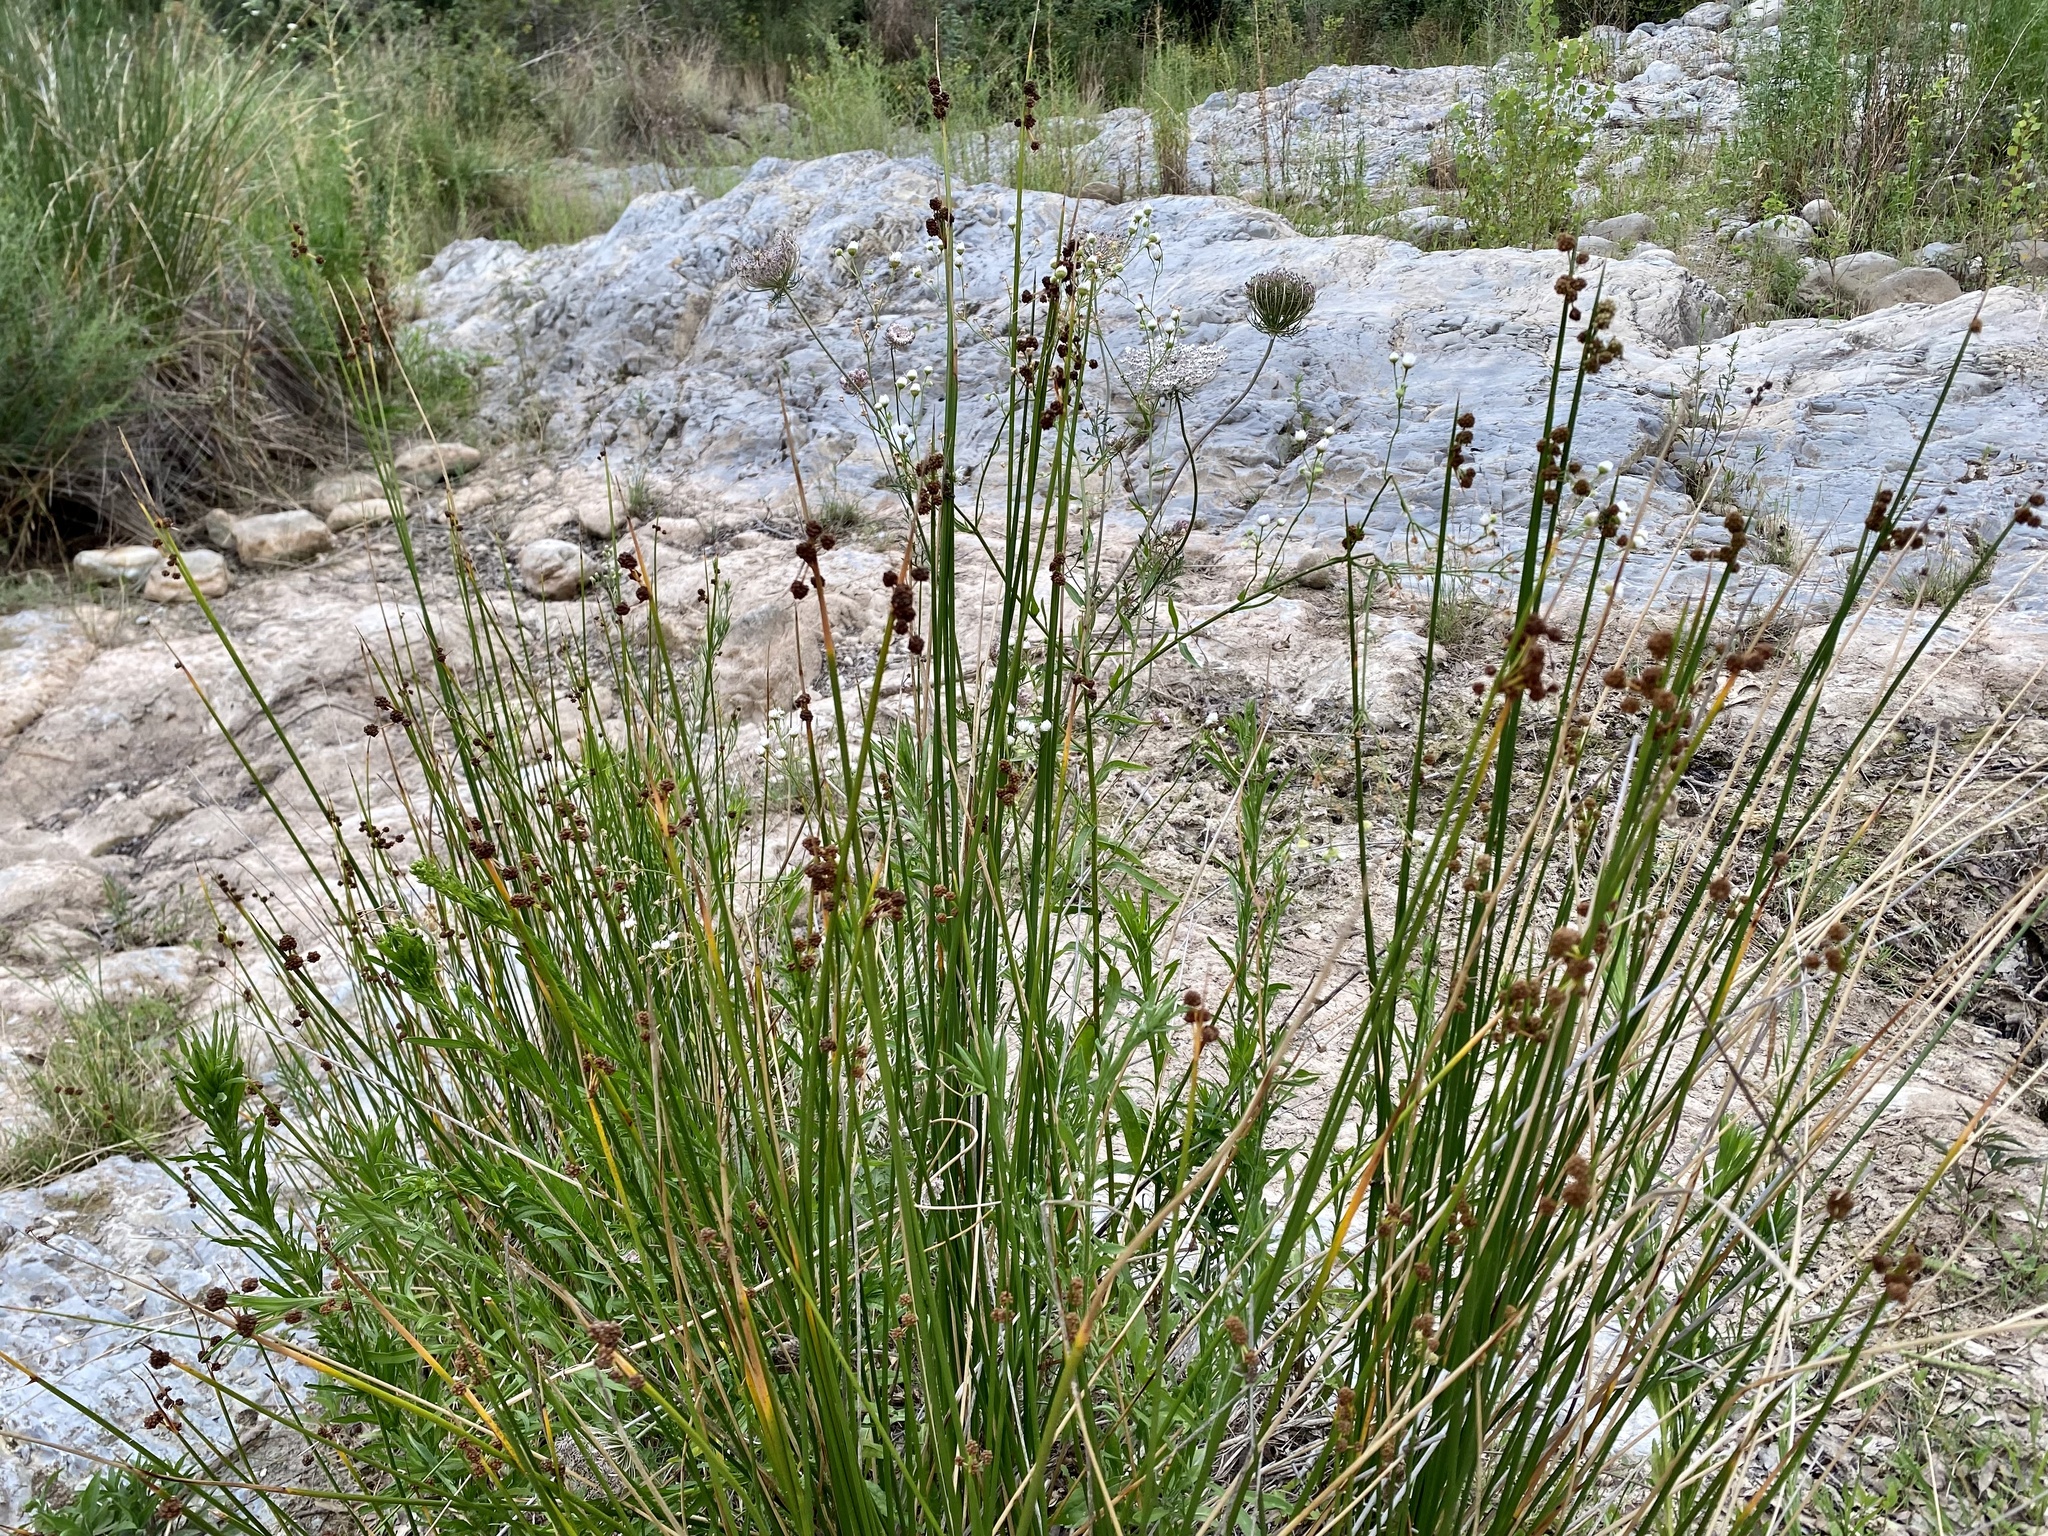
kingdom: Plantae
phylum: Tracheophyta
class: Liliopsida
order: Poales
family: Cyperaceae
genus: Scirpoides
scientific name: Scirpoides holoschoenus
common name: Round-headed club-rush
